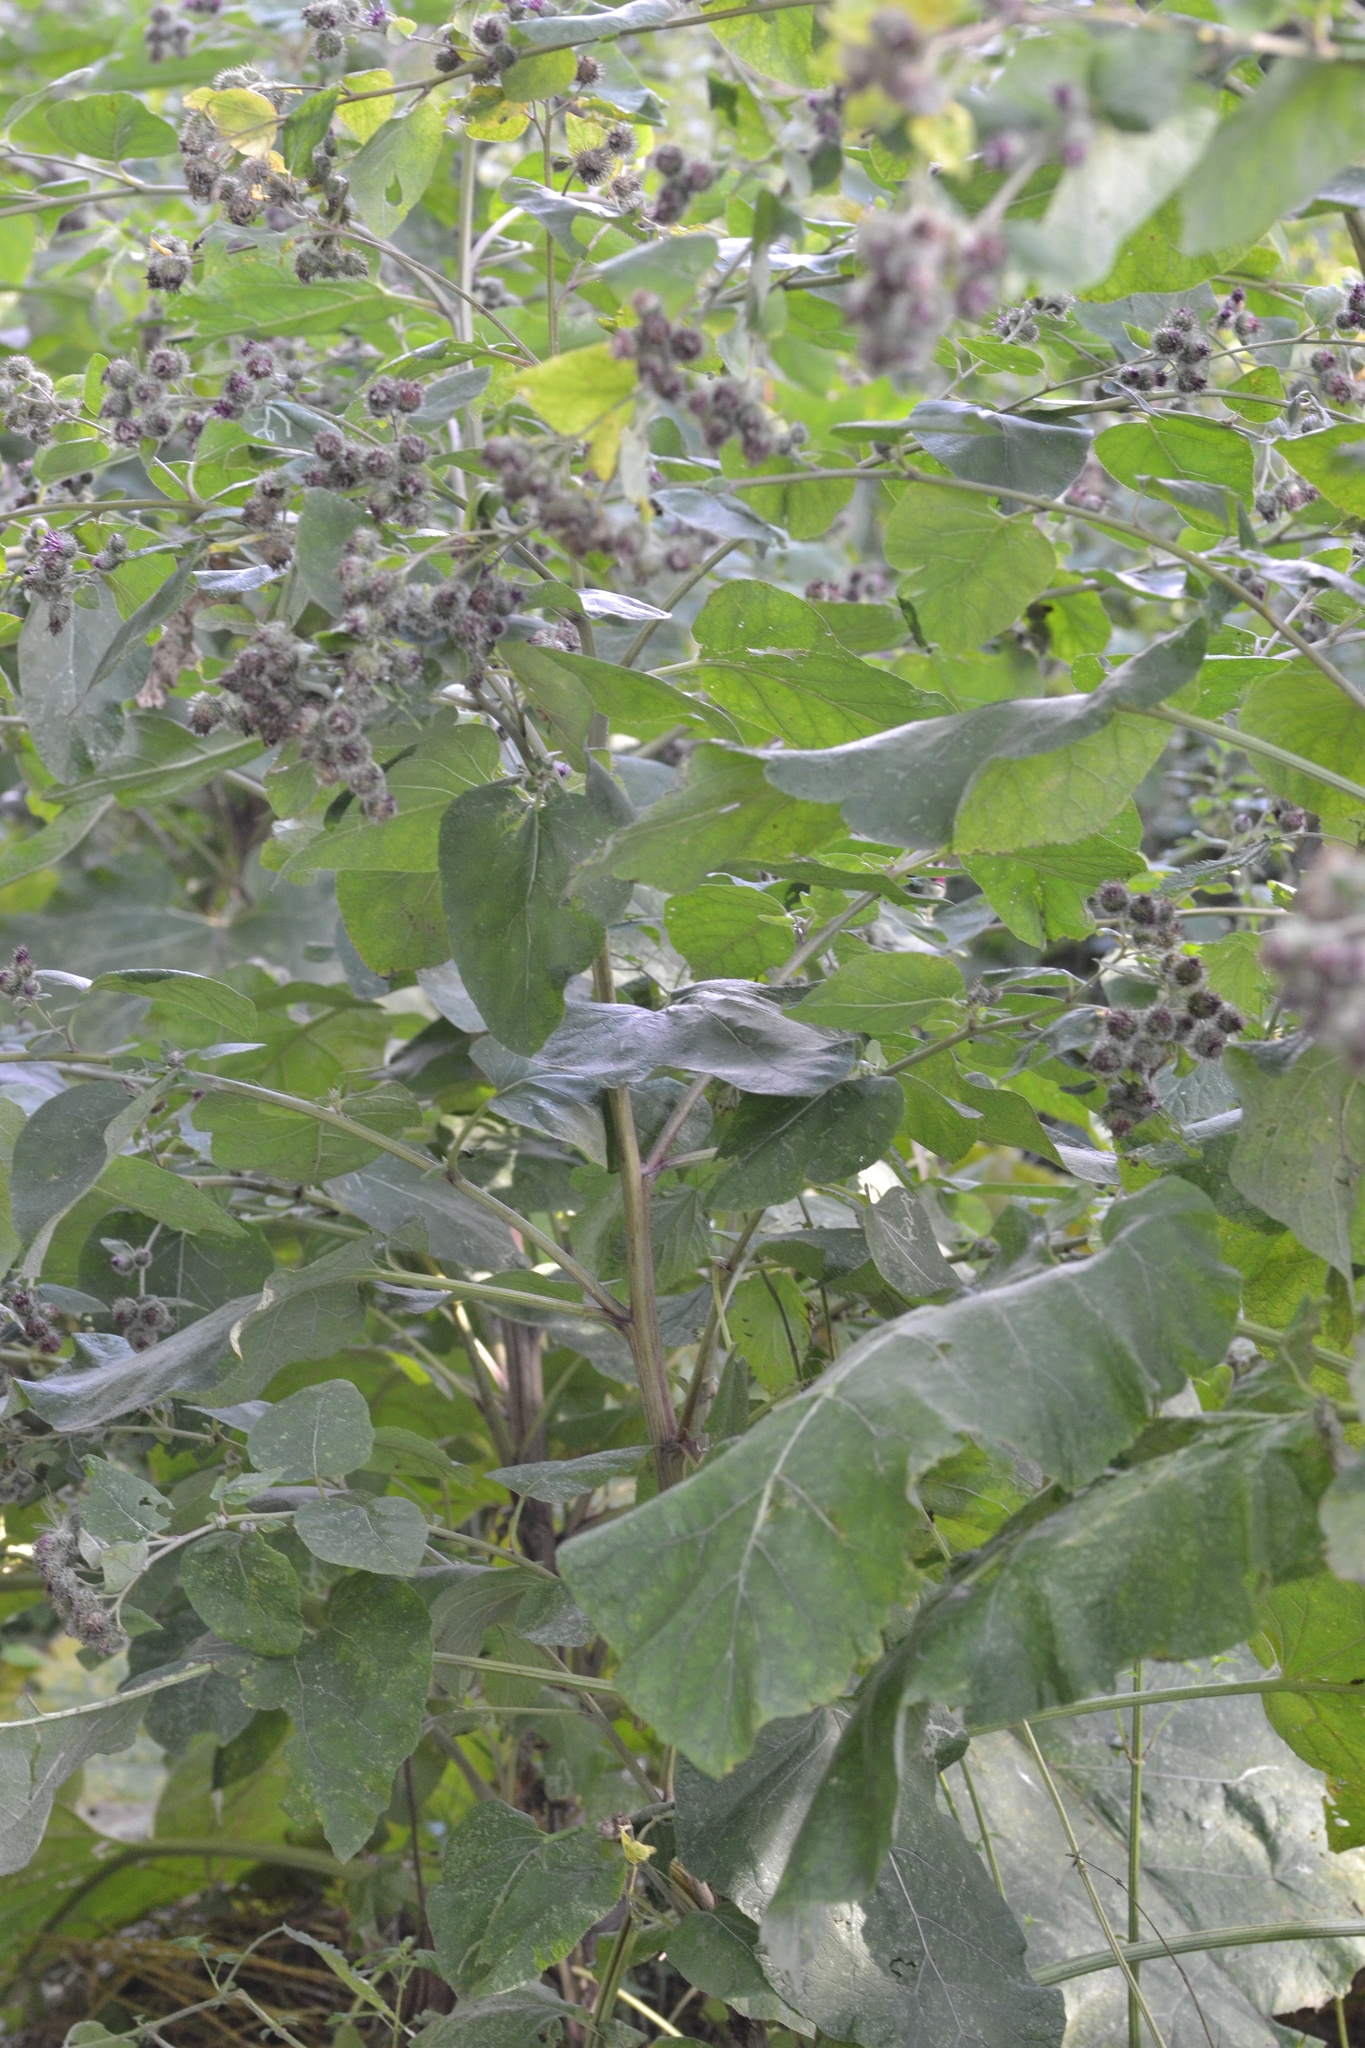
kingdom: Plantae
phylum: Tracheophyta
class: Magnoliopsida
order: Asterales
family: Asteraceae
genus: Arctium
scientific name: Arctium tomentosum
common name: Woolly burdock
